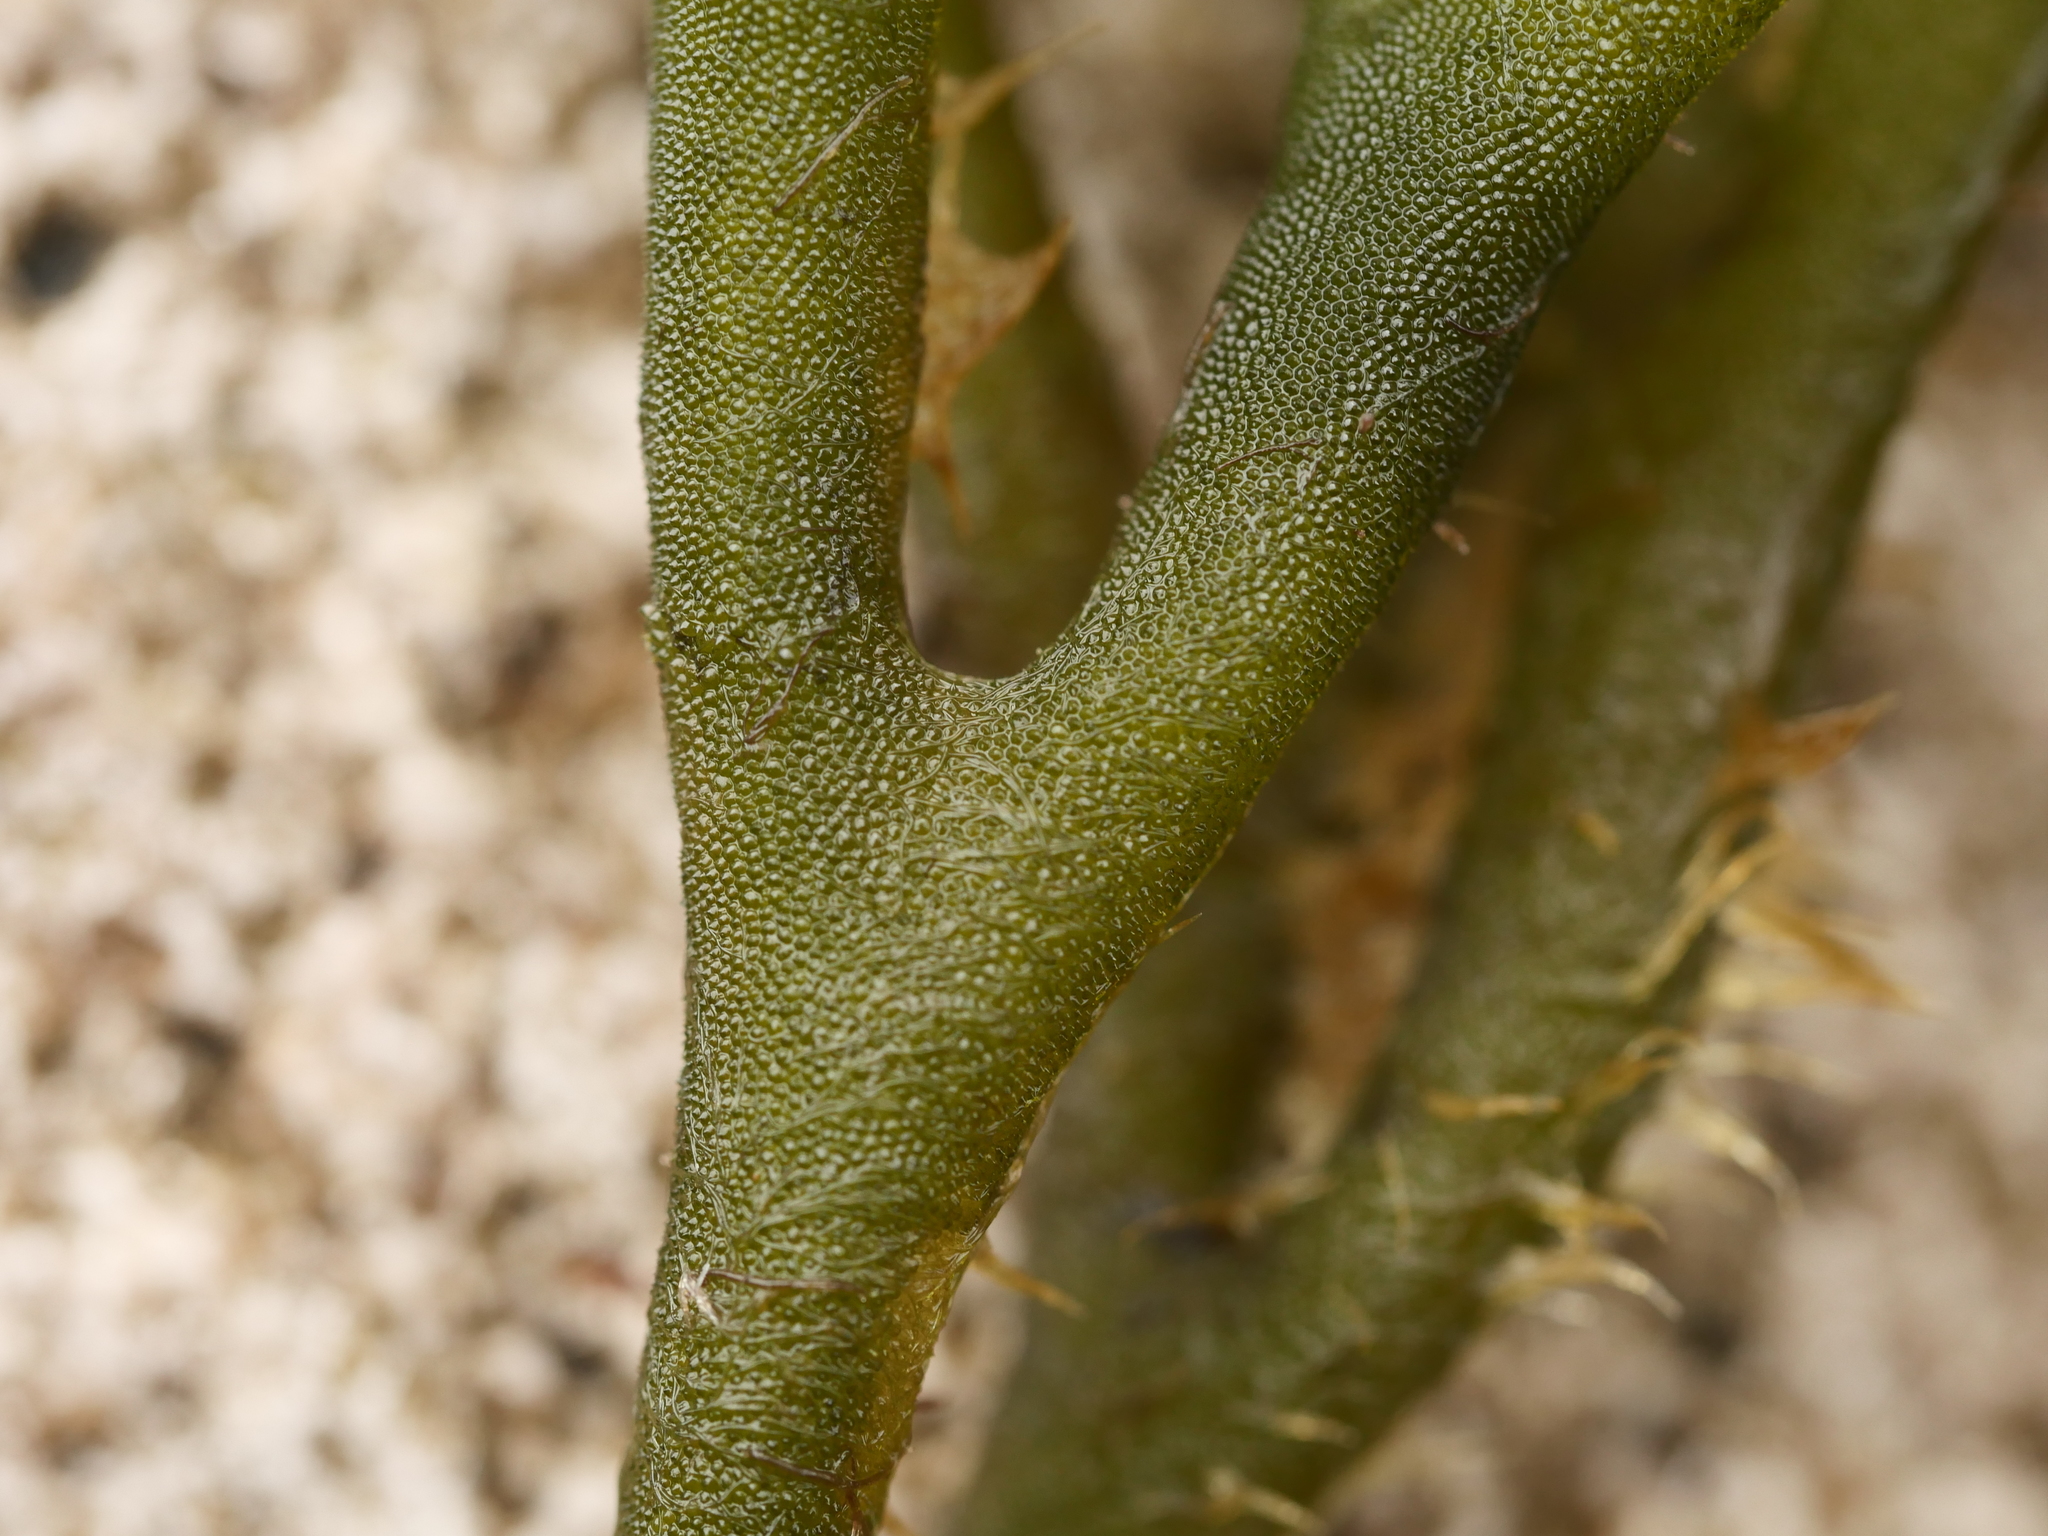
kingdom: Plantae
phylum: Chlorophyta
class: Ulvophyceae
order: Bryopsidales
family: Codiaceae
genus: Codium
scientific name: Codium fragile
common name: Dead man's fingers
